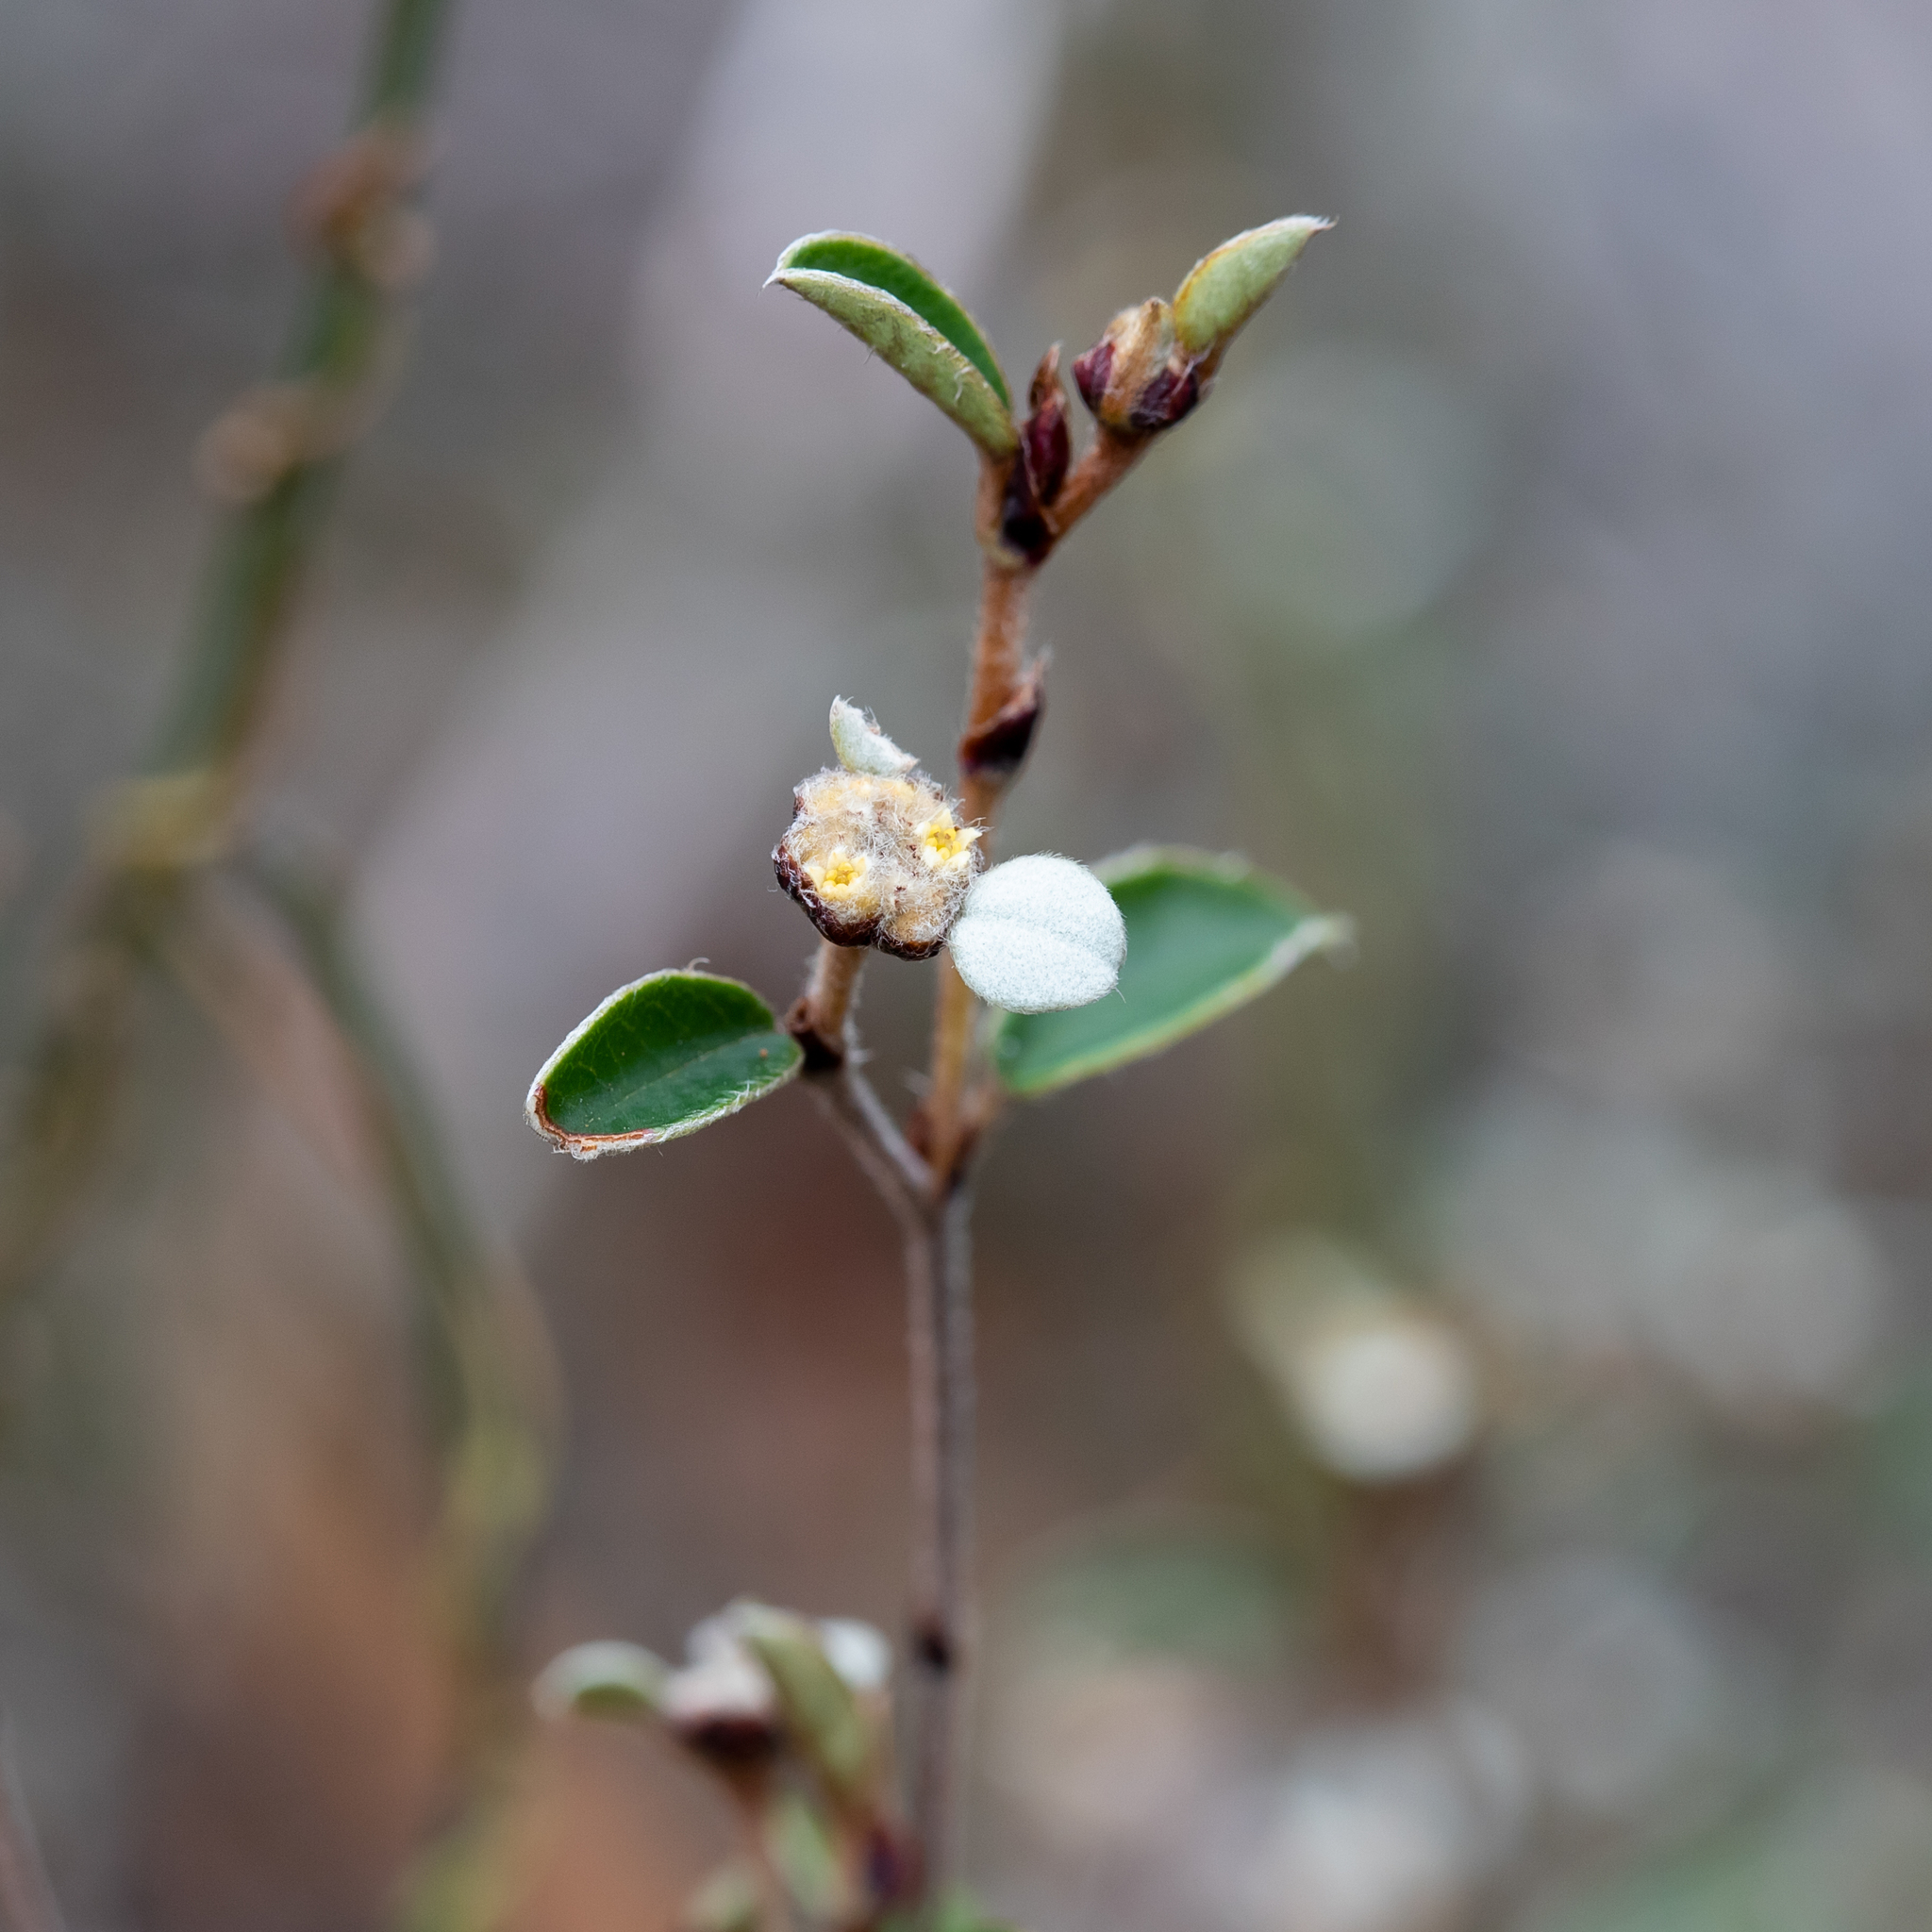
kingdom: Plantae
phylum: Tracheophyta
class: Magnoliopsida
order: Rosales
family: Rhamnaceae
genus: Spyridium
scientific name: Spyridium thymifolium
